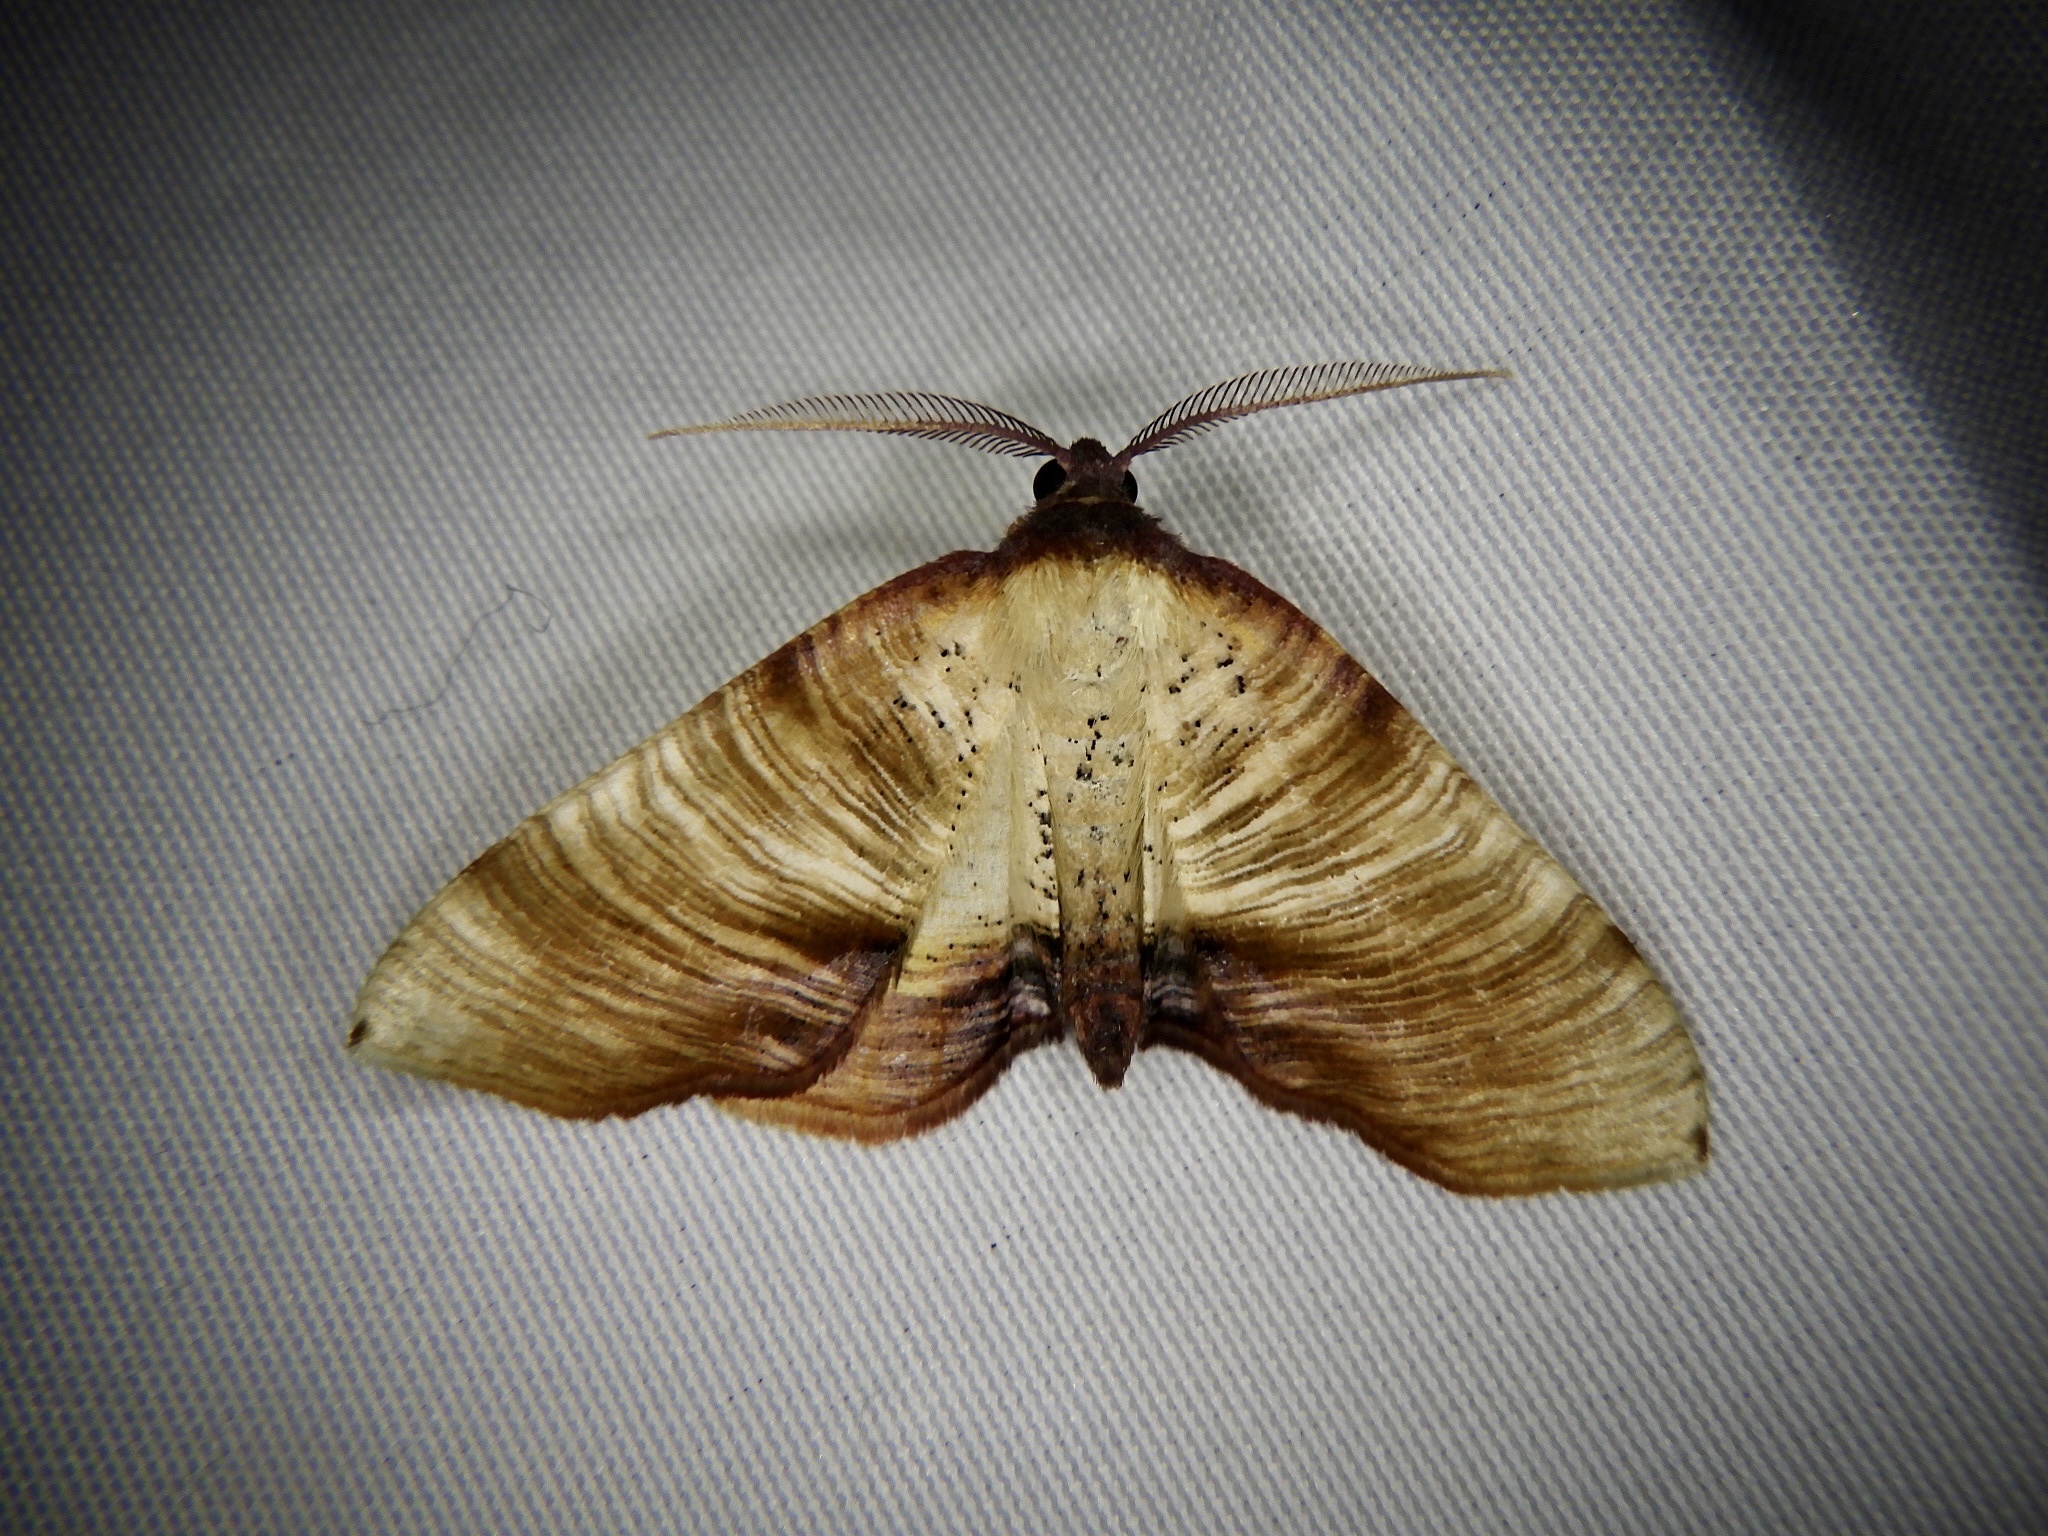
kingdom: Animalia
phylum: Arthropoda
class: Insecta
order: Lepidoptera
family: Geometridae
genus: Plagodis
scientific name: Plagodis dolabraria
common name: Scorched wing
